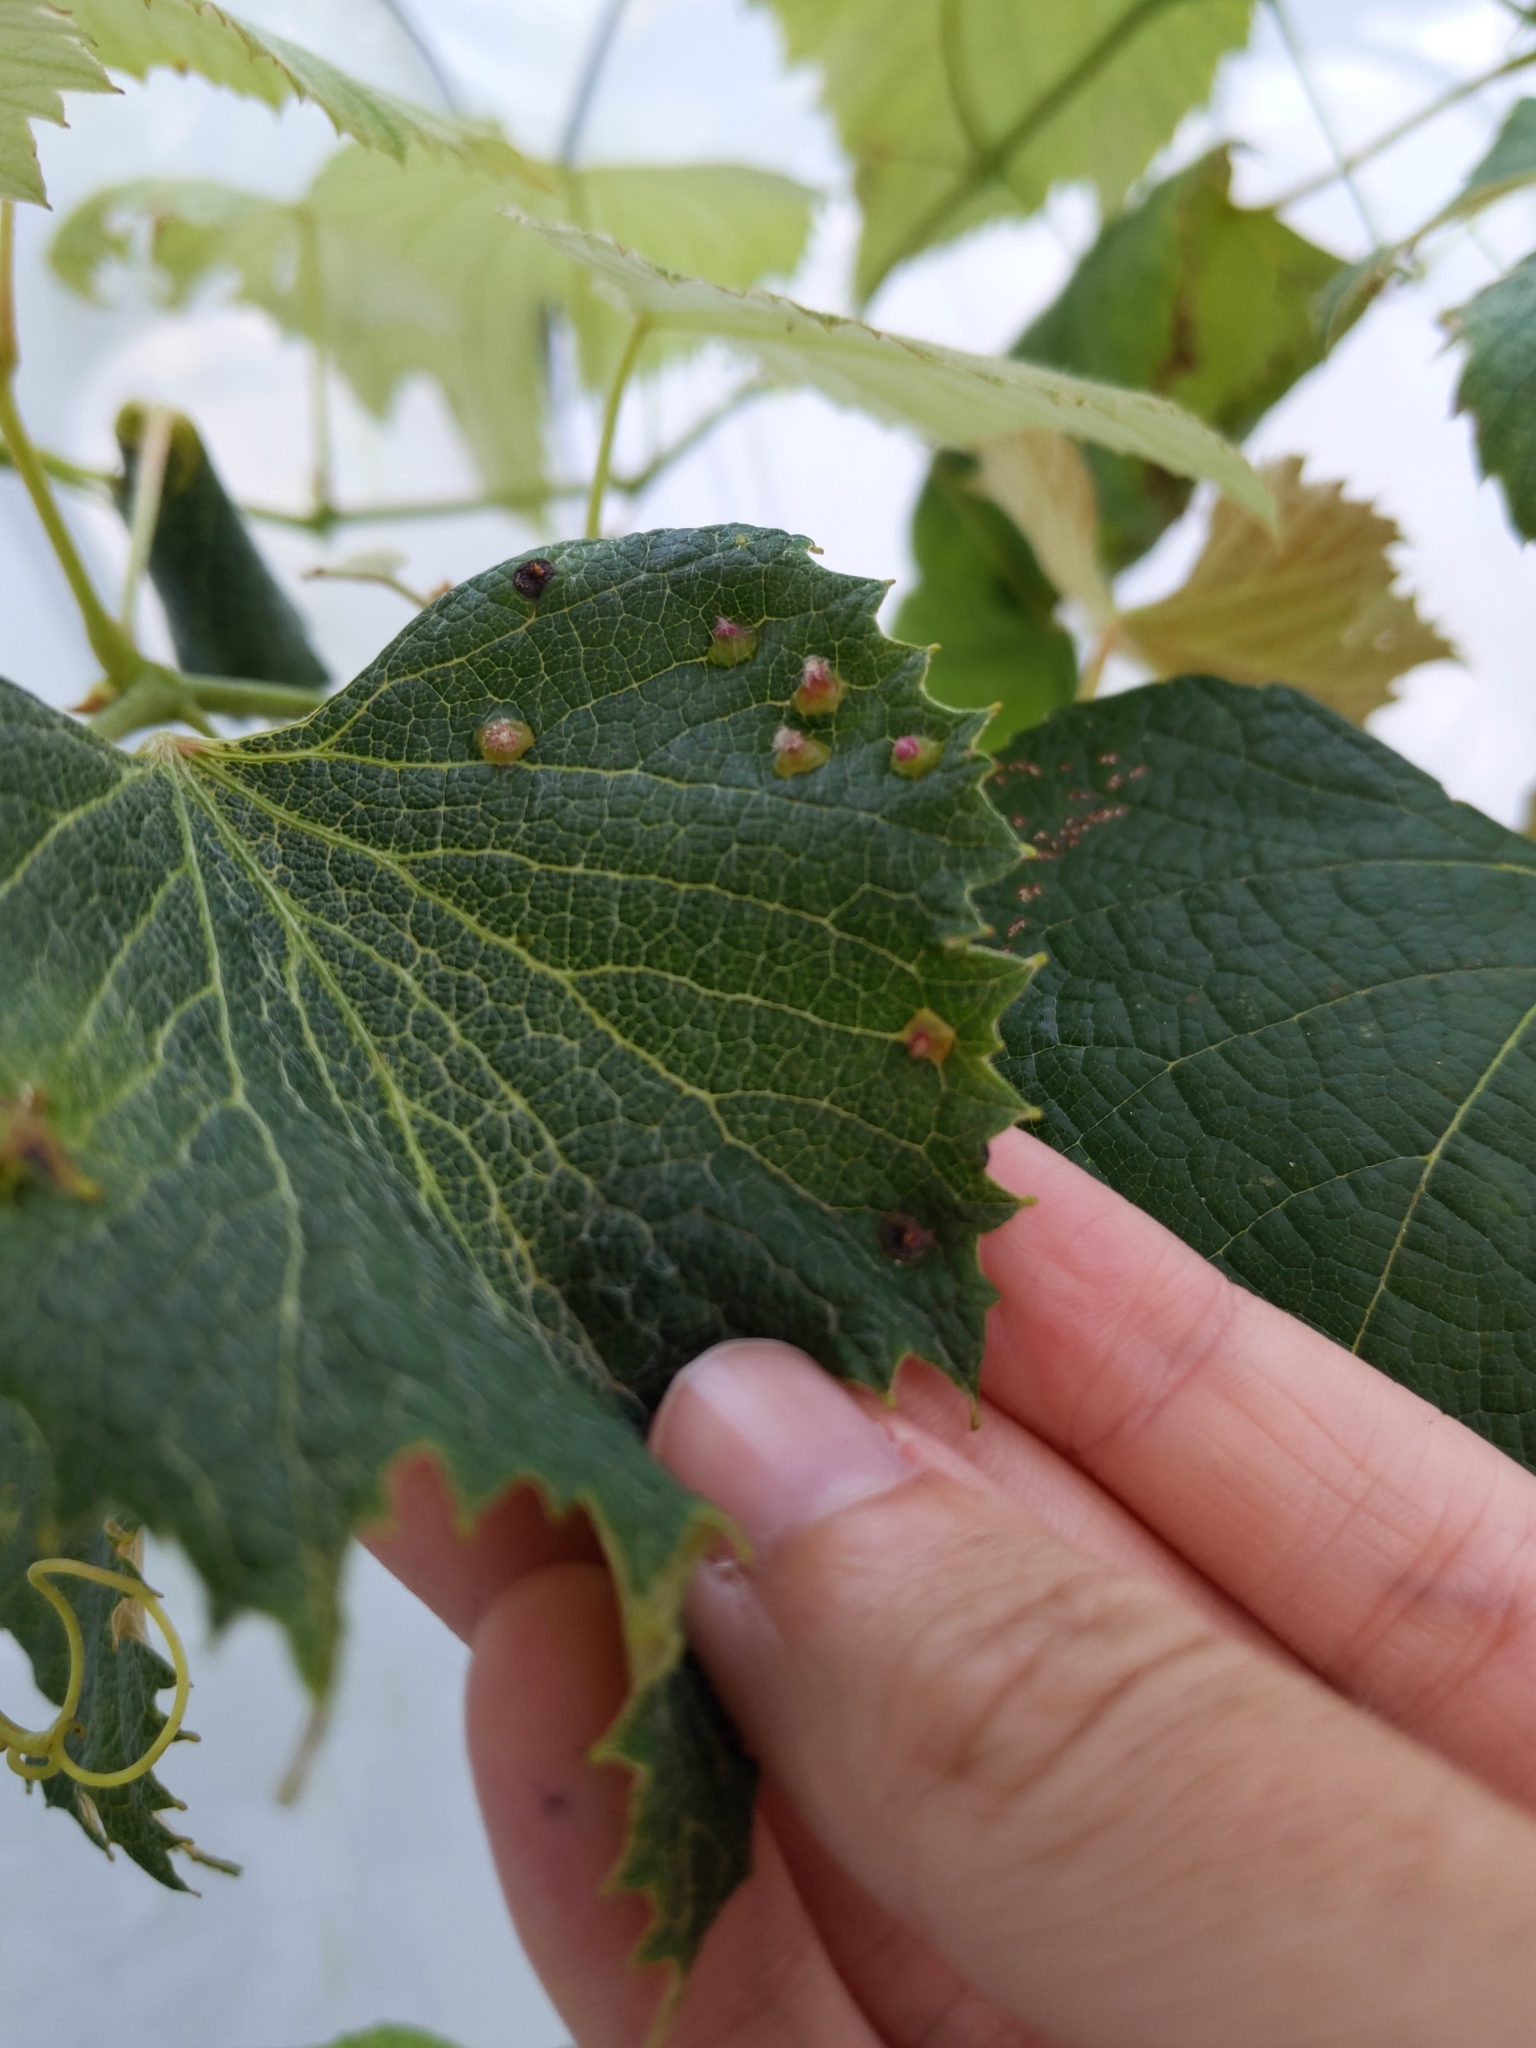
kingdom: Animalia
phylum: Arthropoda
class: Insecta
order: Diptera
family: Cecidomyiidae
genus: Vitisiella
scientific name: Vitisiella
